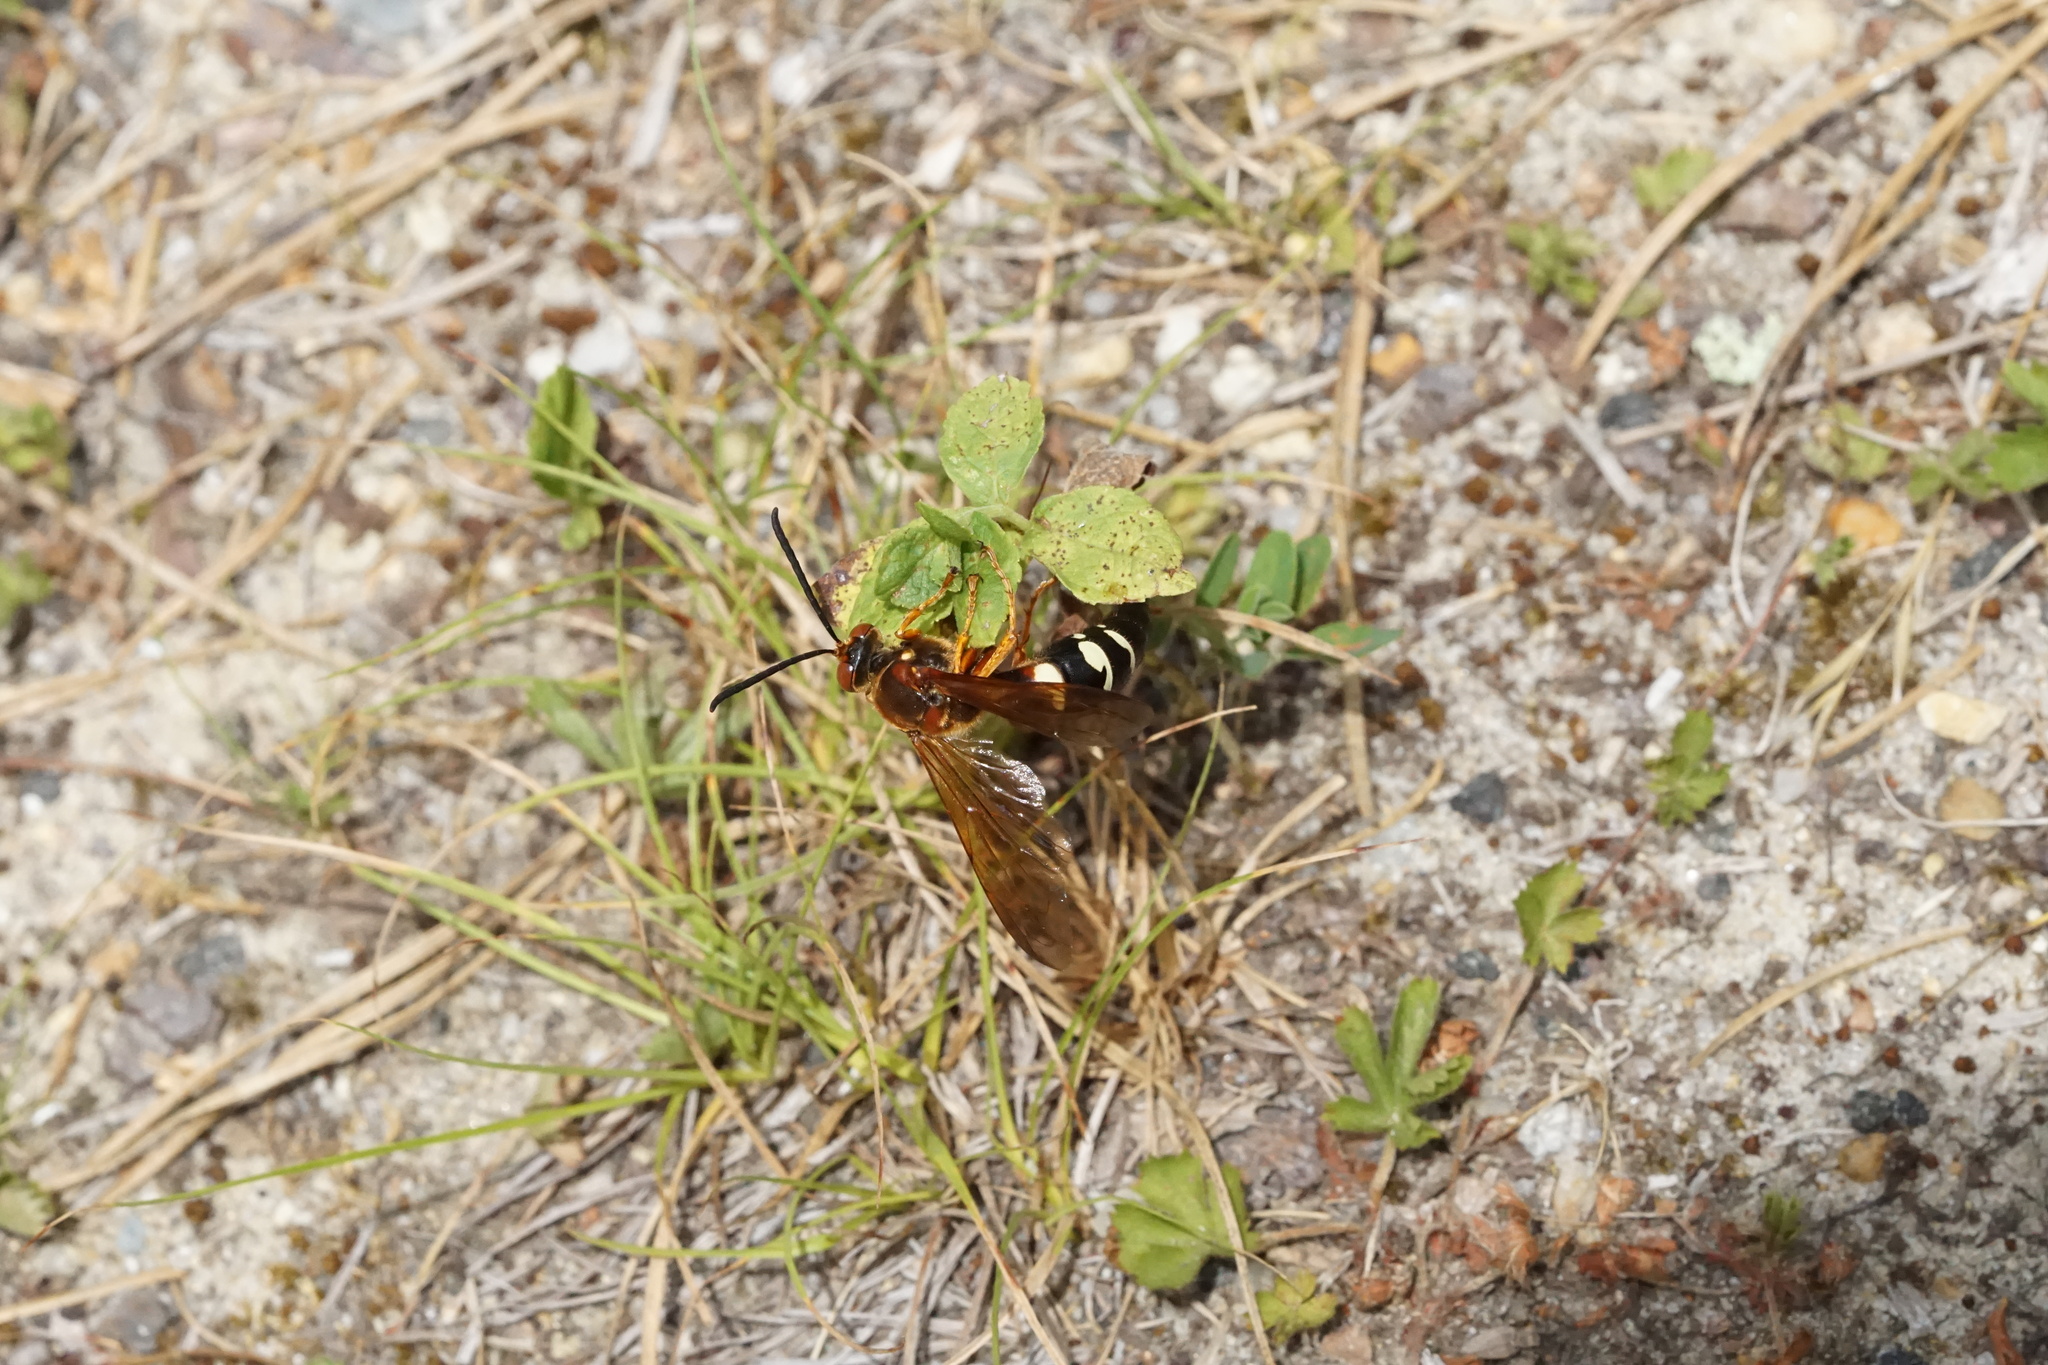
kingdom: Animalia
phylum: Arthropoda
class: Insecta
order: Hymenoptera
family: Crabronidae
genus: Sphecius
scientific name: Sphecius speciosus
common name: Cicada killer
